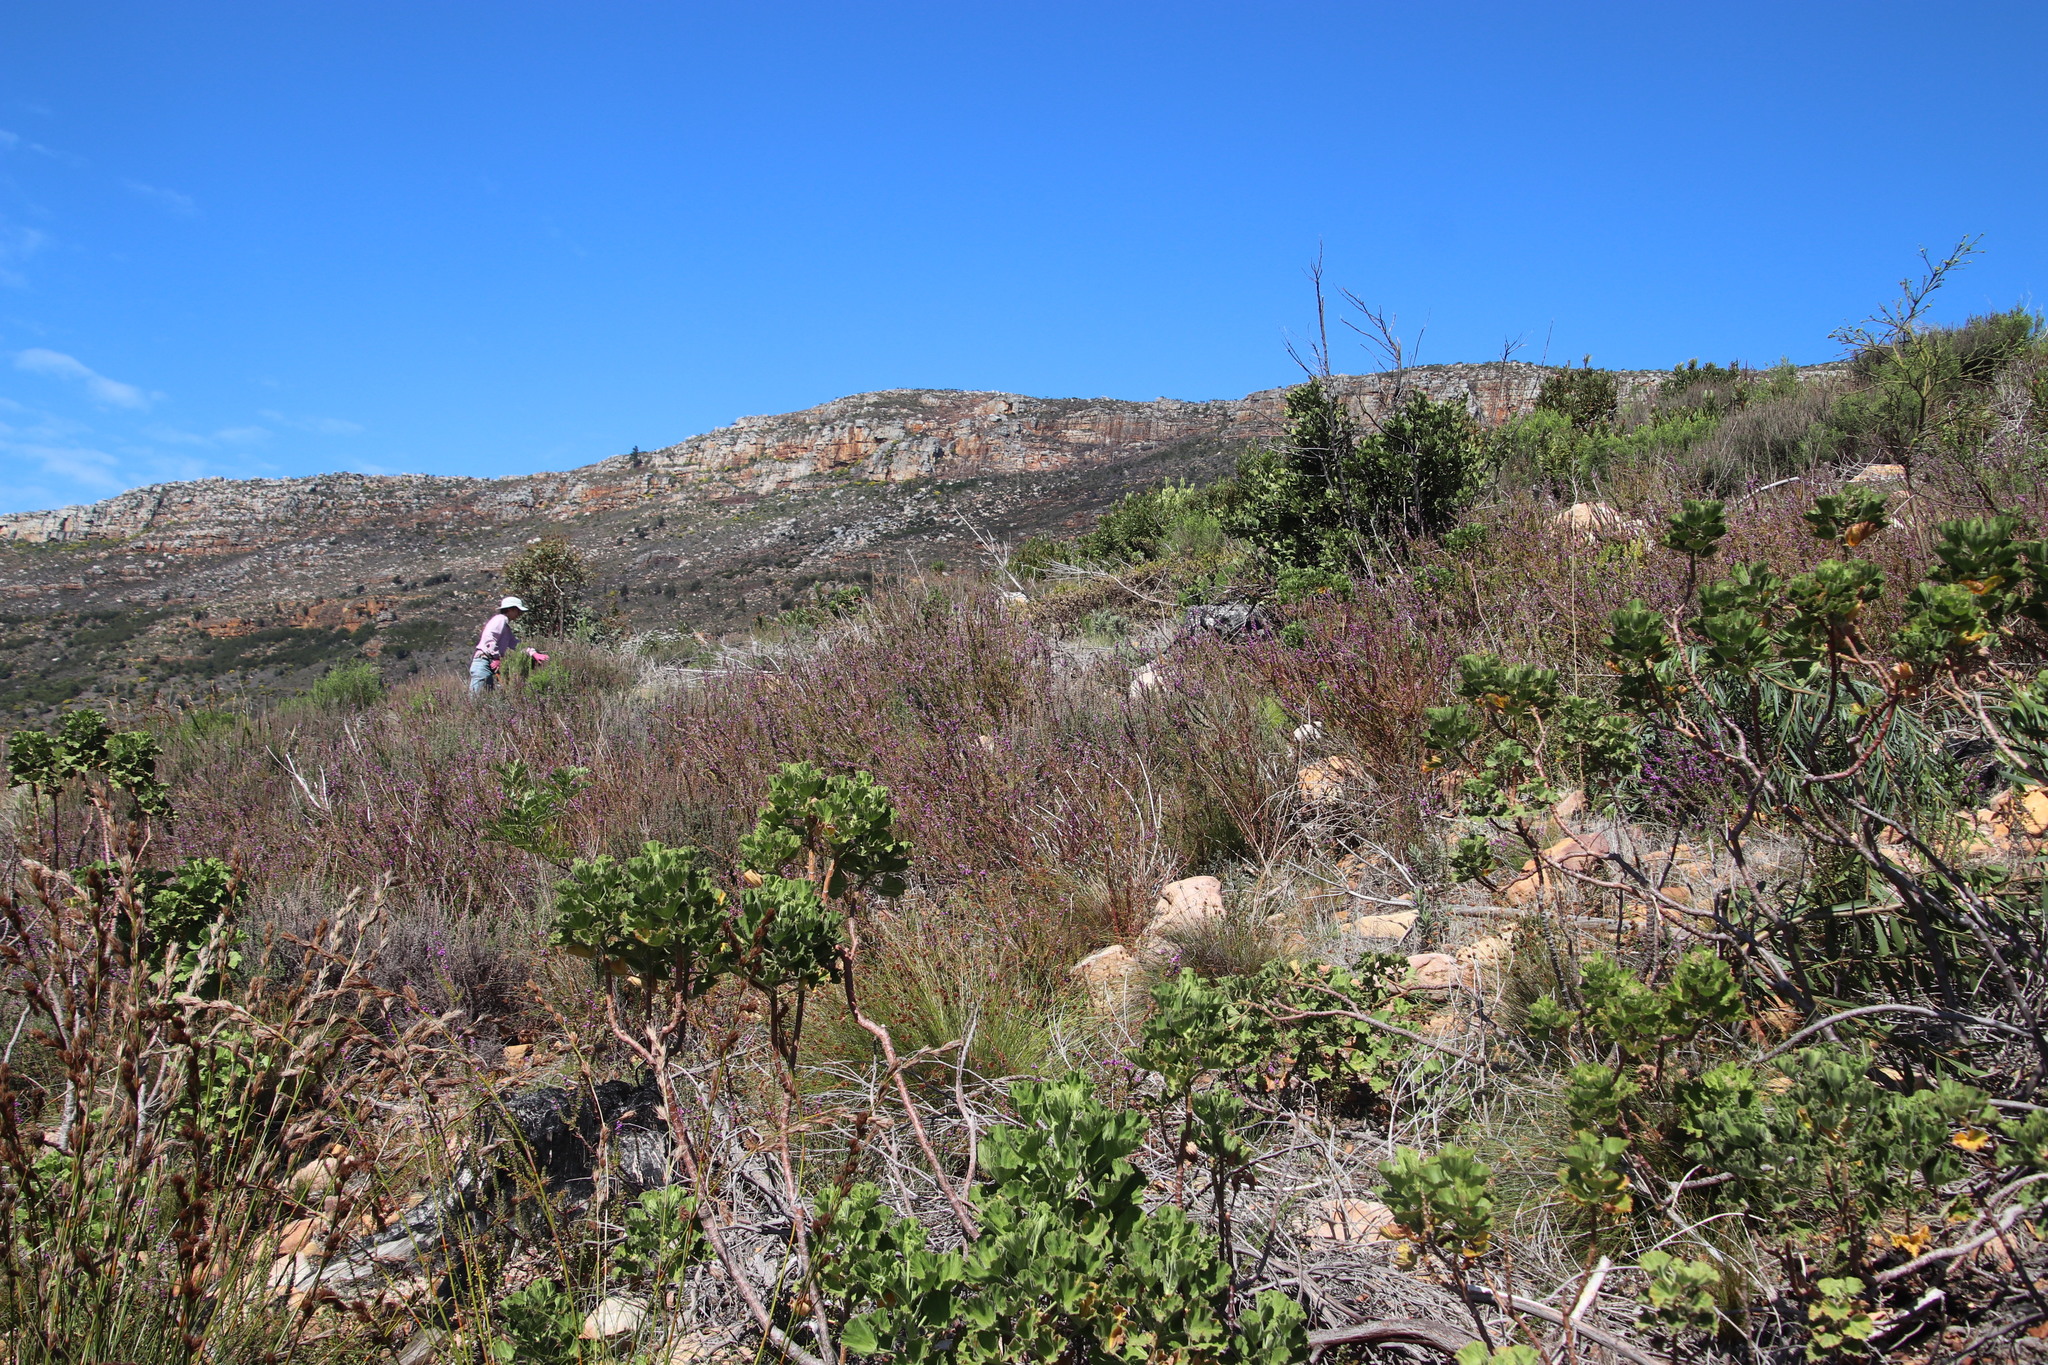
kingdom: Plantae
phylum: Tracheophyta
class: Magnoliopsida
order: Geraniales
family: Geraniaceae
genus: Pelargonium
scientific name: Pelargonium cucullatum
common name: Tree pelargonium
